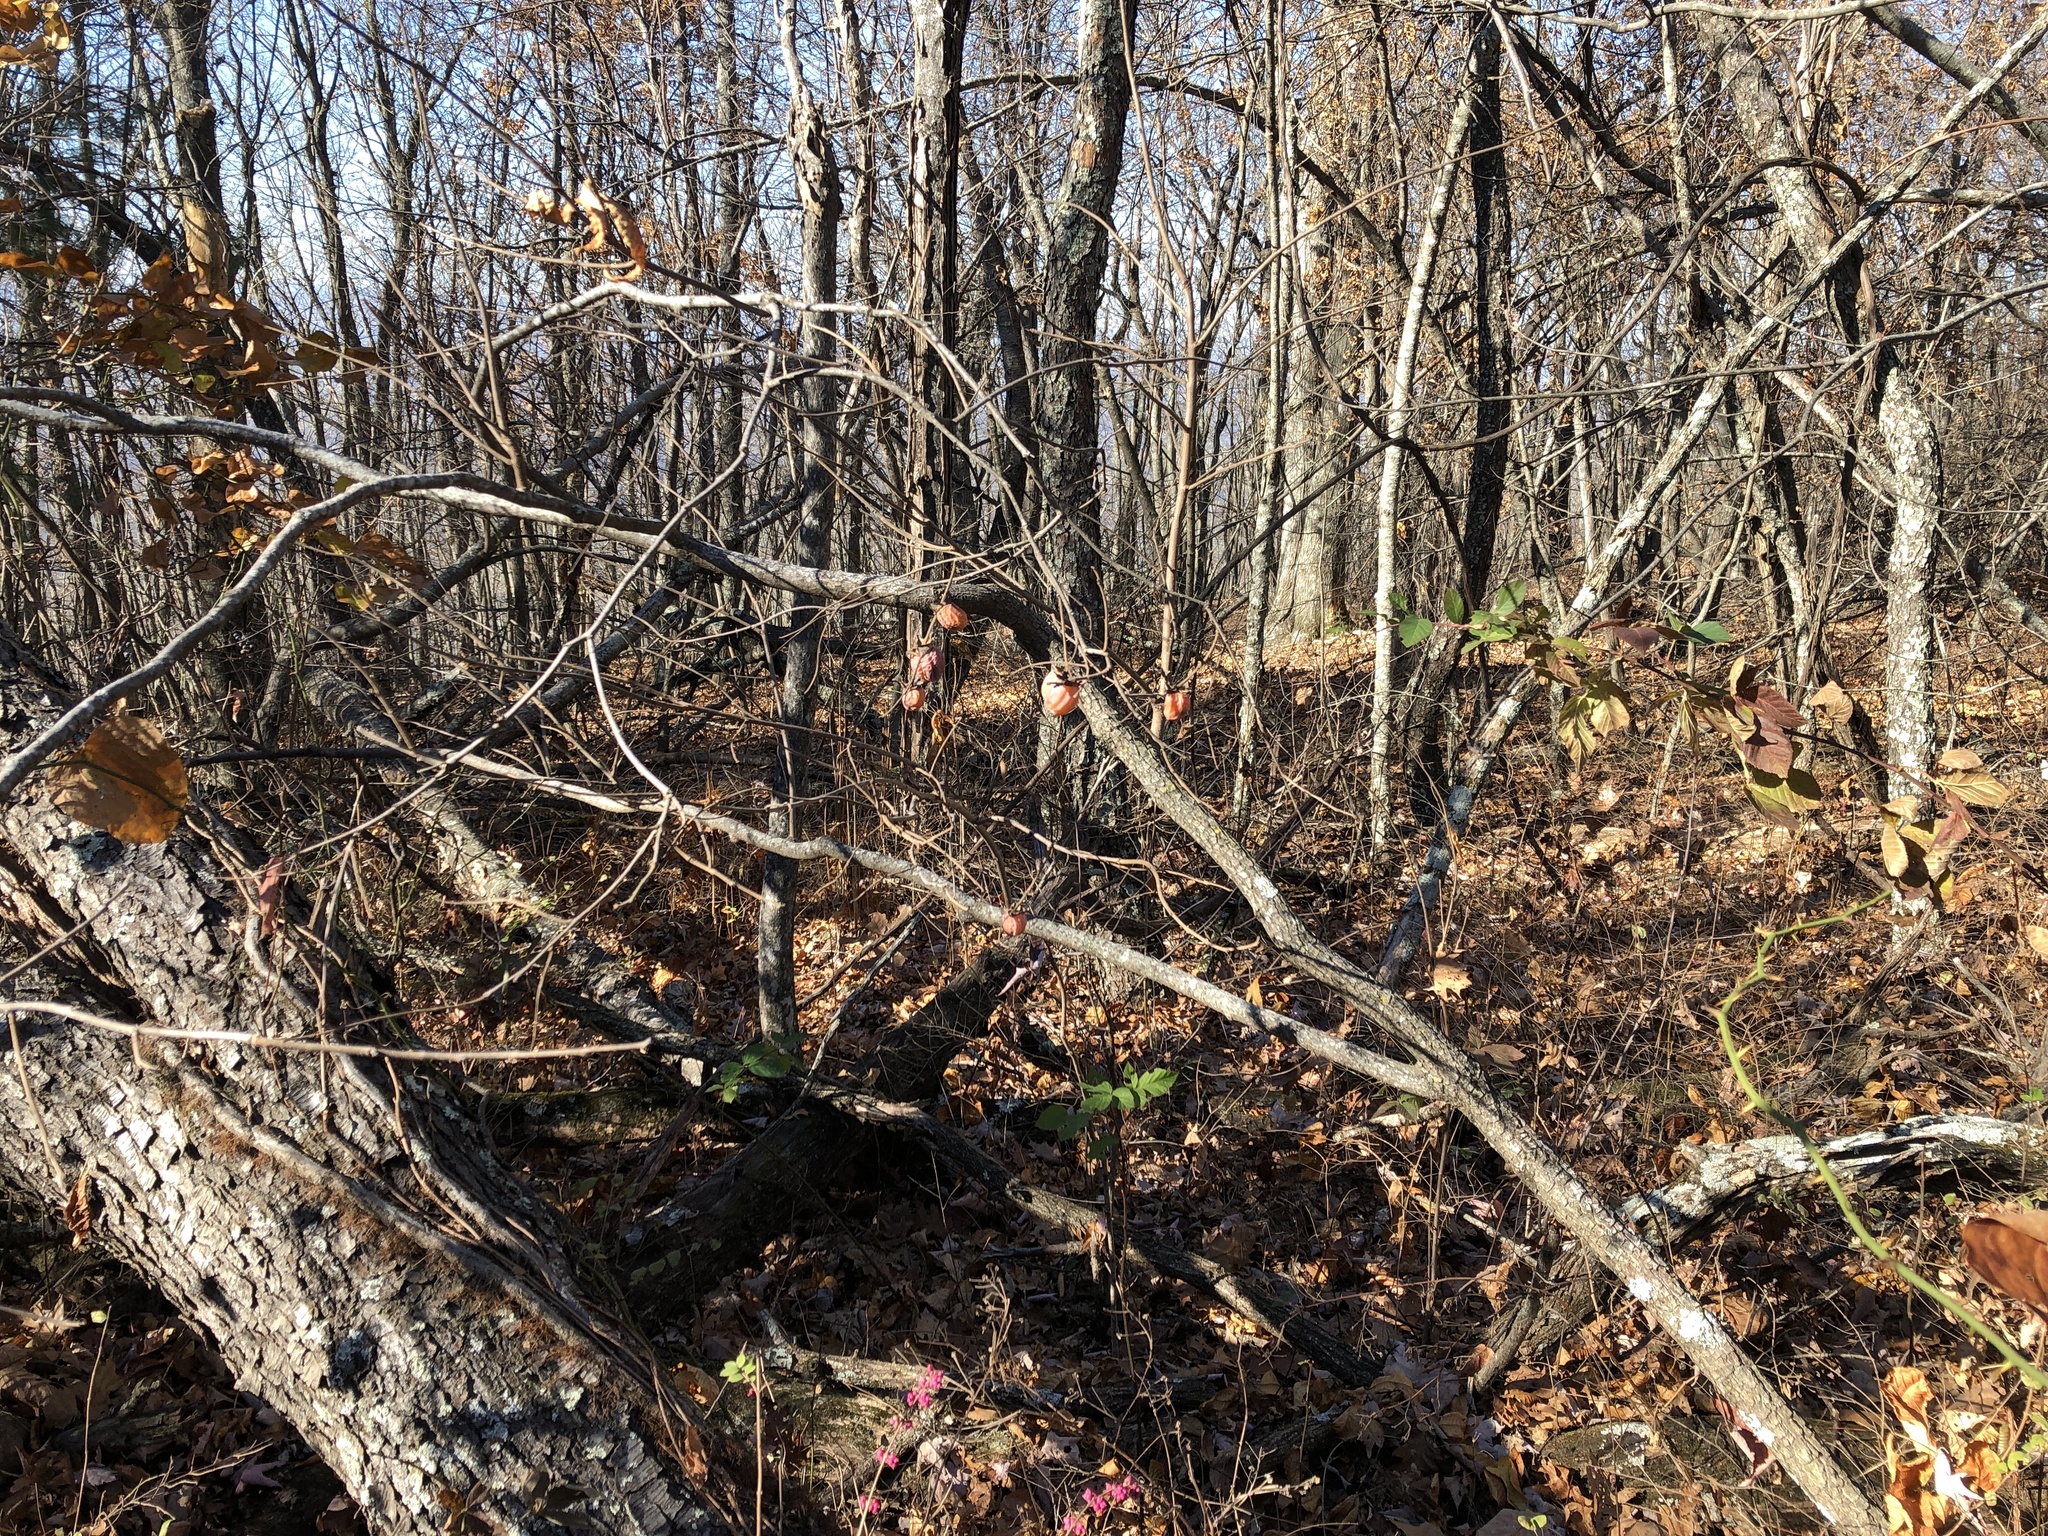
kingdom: Plantae
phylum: Tracheophyta
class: Magnoliopsida
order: Ericales
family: Ebenaceae
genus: Diospyros
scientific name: Diospyros virginiana
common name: Persimmon
